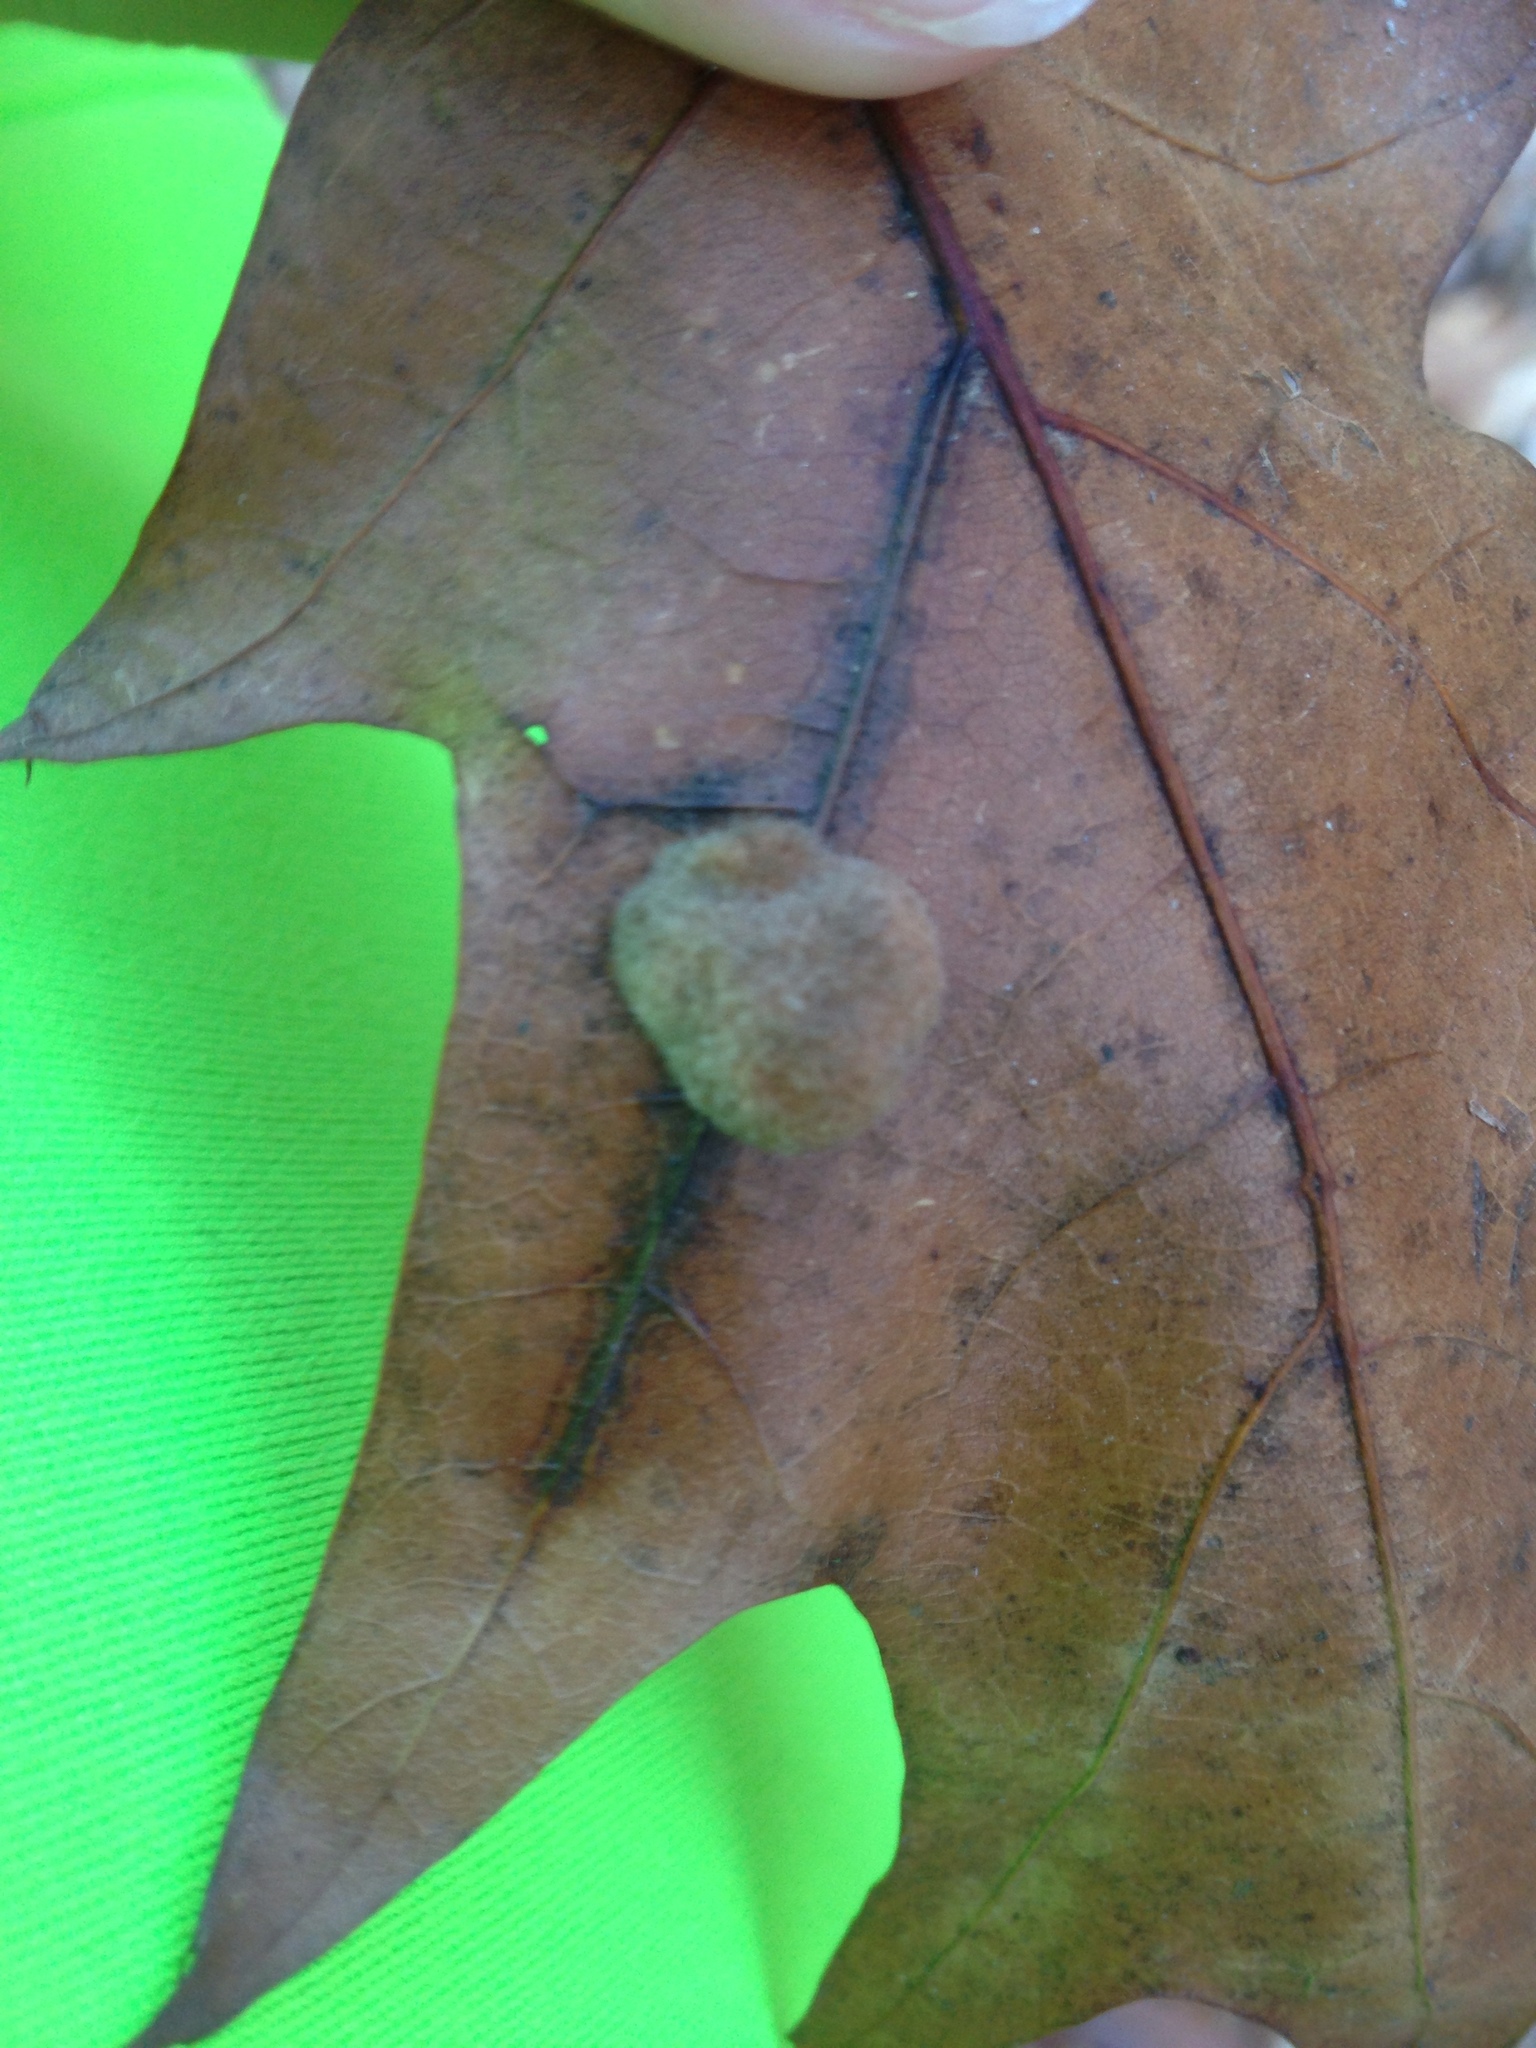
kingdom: Animalia
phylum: Arthropoda
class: Insecta
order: Hymenoptera
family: Cynipidae
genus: Callirhytis
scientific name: Callirhytis
